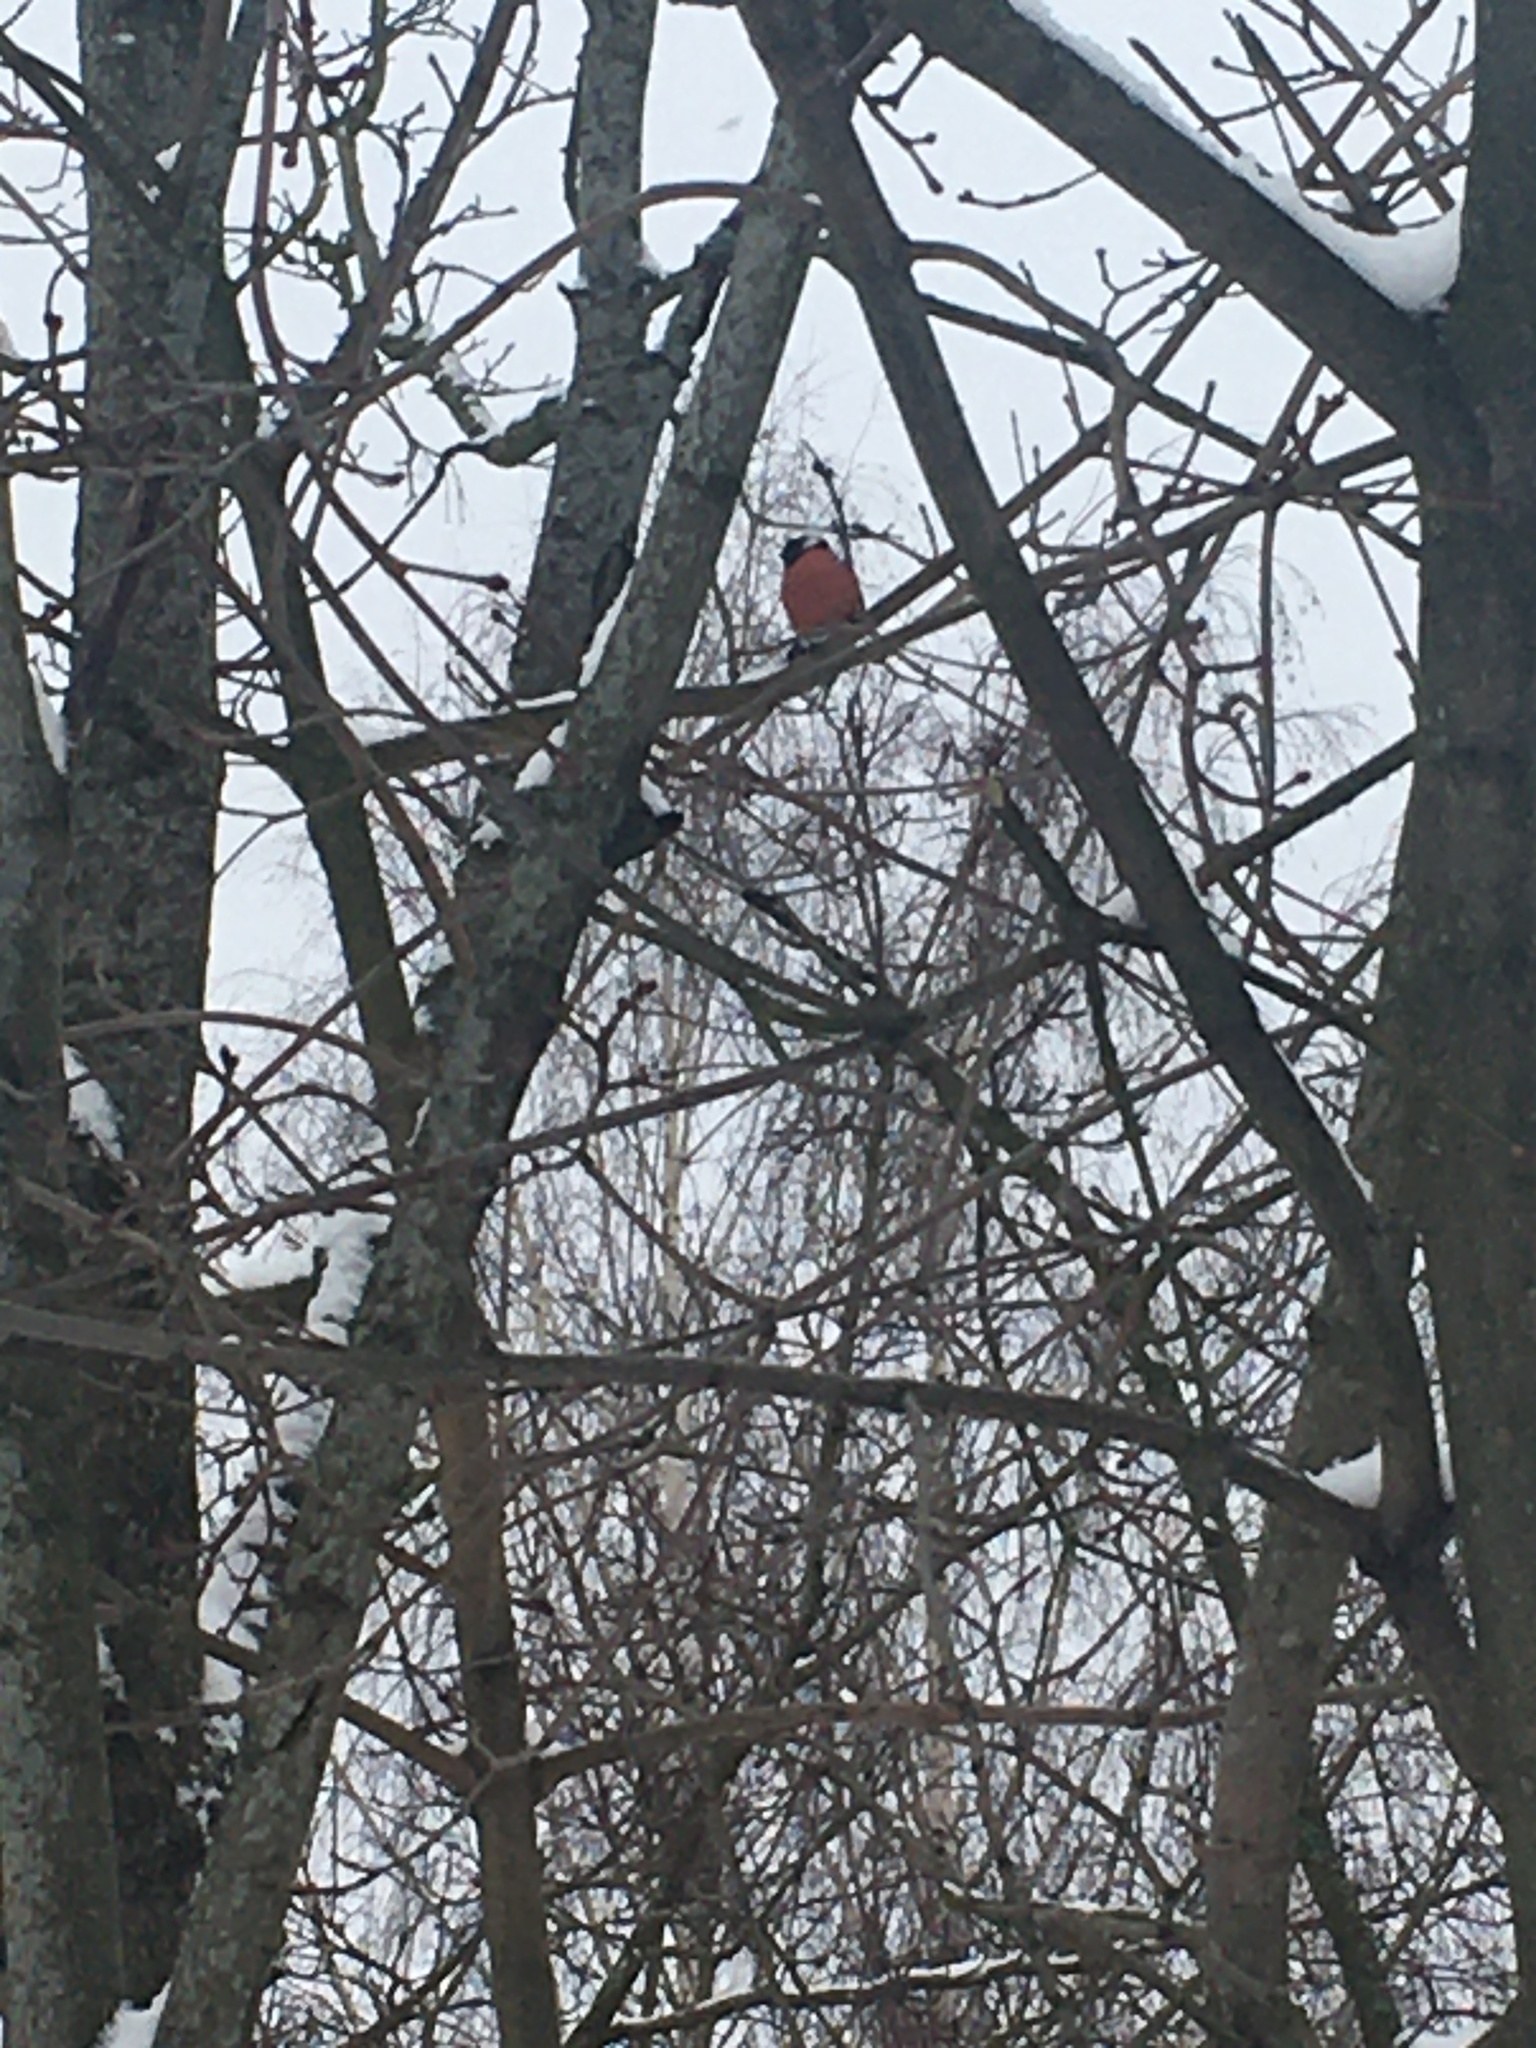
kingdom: Animalia
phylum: Chordata
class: Aves
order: Passeriformes
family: Fringillidae
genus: Pyrrhula
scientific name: Pyrrhula pyrrhula
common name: Eurasian bullfinch
